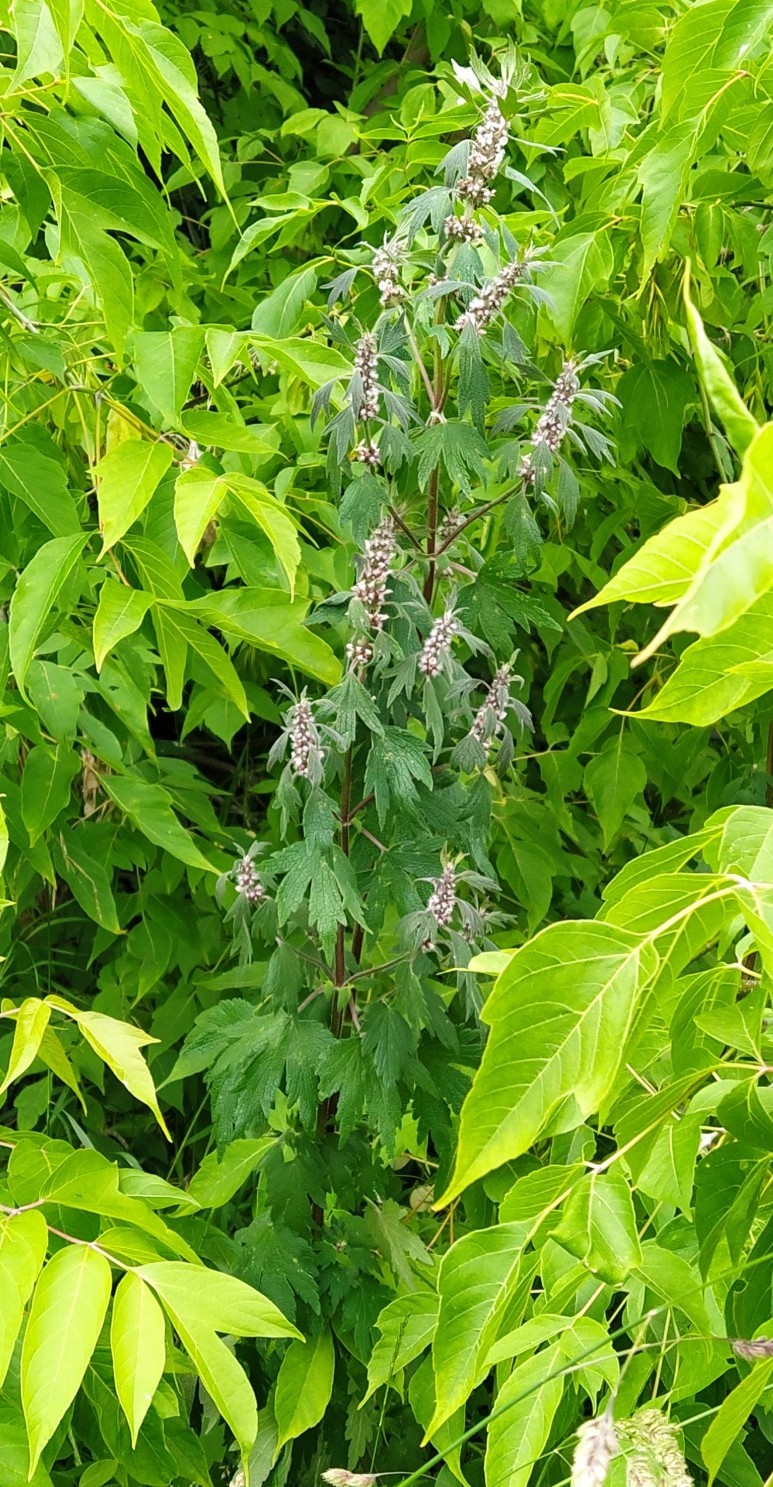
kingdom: Plantae
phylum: Tracheophyta
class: Magnoliopsida
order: Lamiales
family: Lamiaceae
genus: Leonurus
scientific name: Leonurus quinquelobatus
